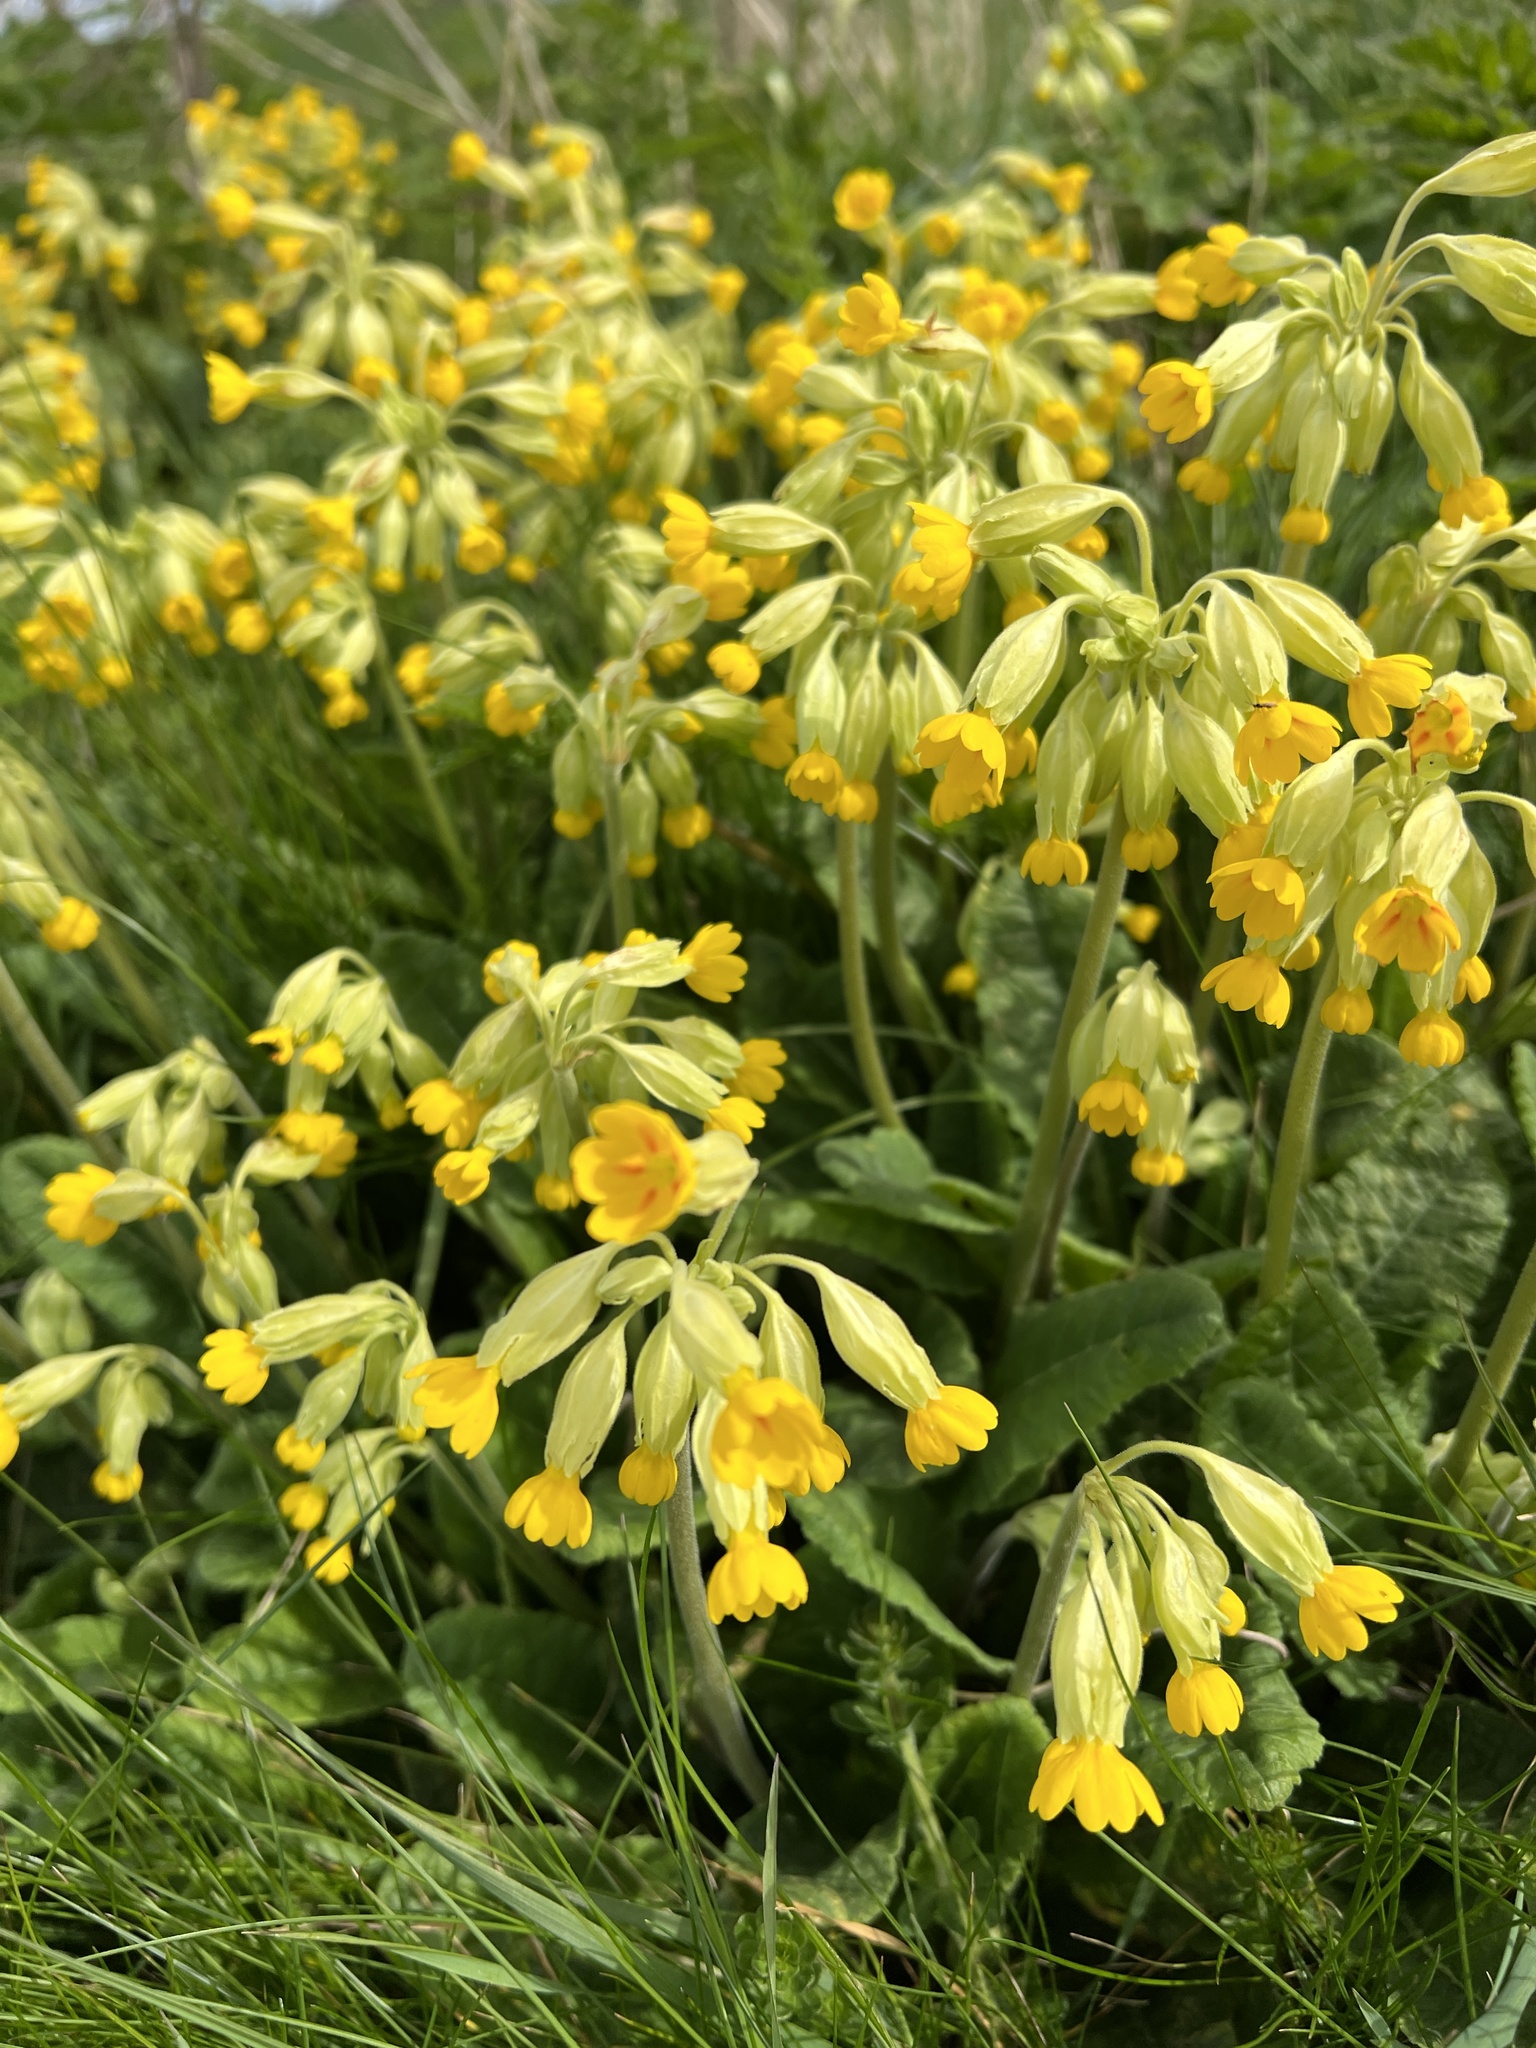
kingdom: Plantae
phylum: Tracheophyta
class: Magnoliopsida
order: Ericales
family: Primulaceae
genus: Primula
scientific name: Primula veris
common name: Cowslip
